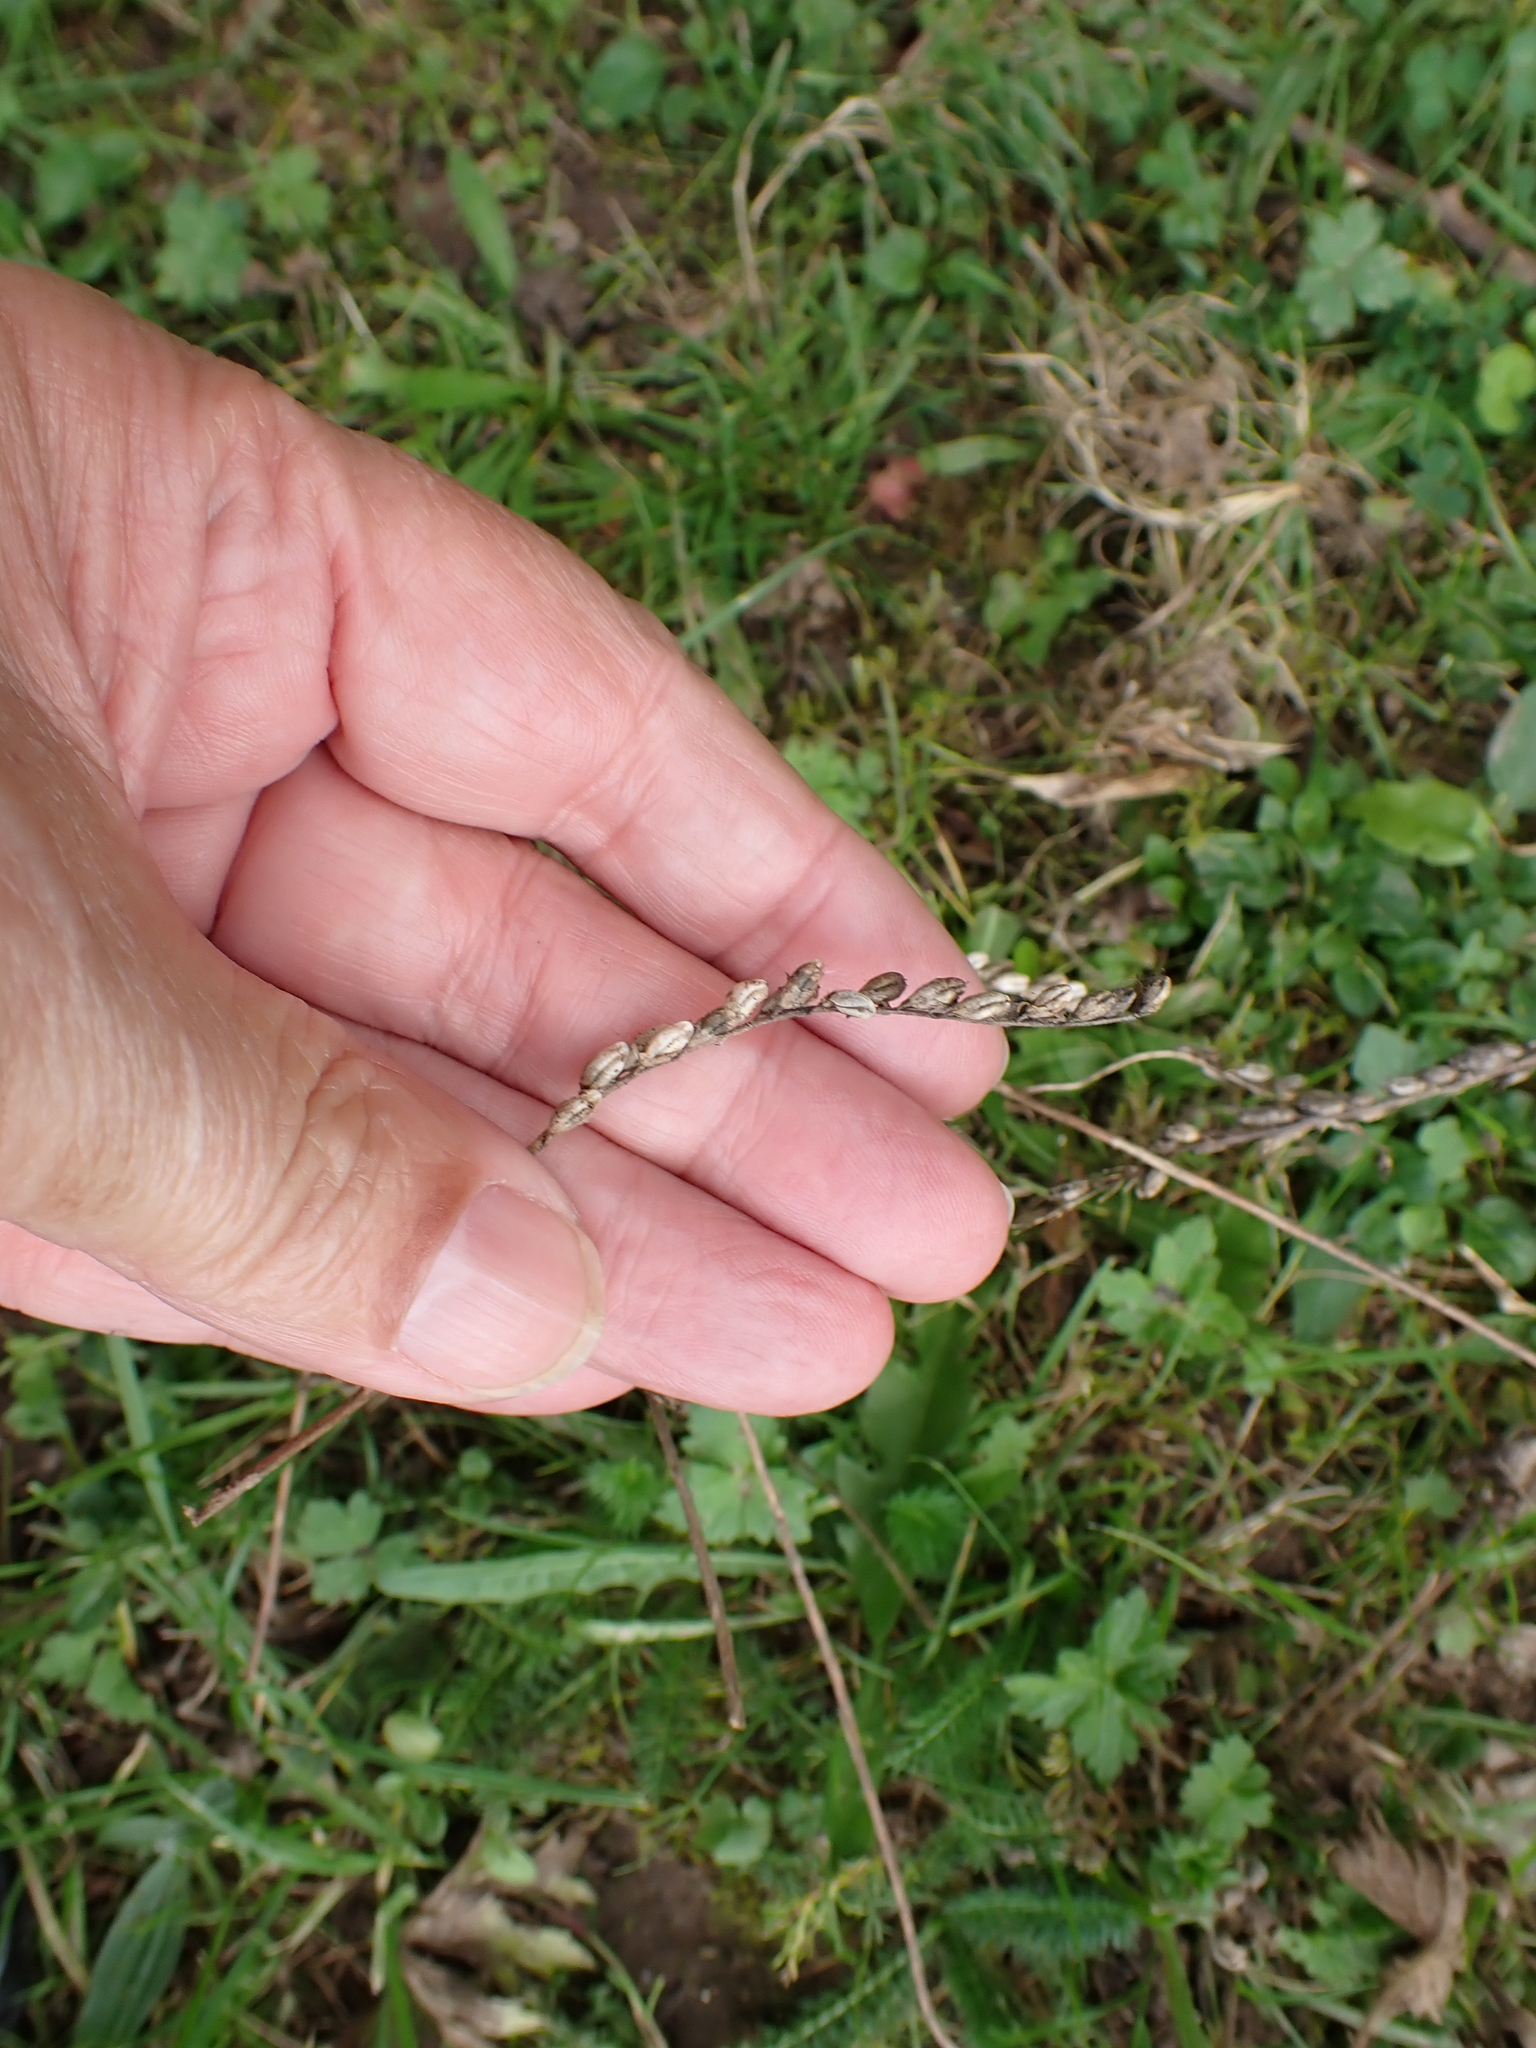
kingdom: Plantae
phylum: Tracheophyta
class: Magnoliopsida
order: Lamiales
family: Orobanchaceae
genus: Odontites
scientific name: Odontites vulgaris
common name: Broomrape
